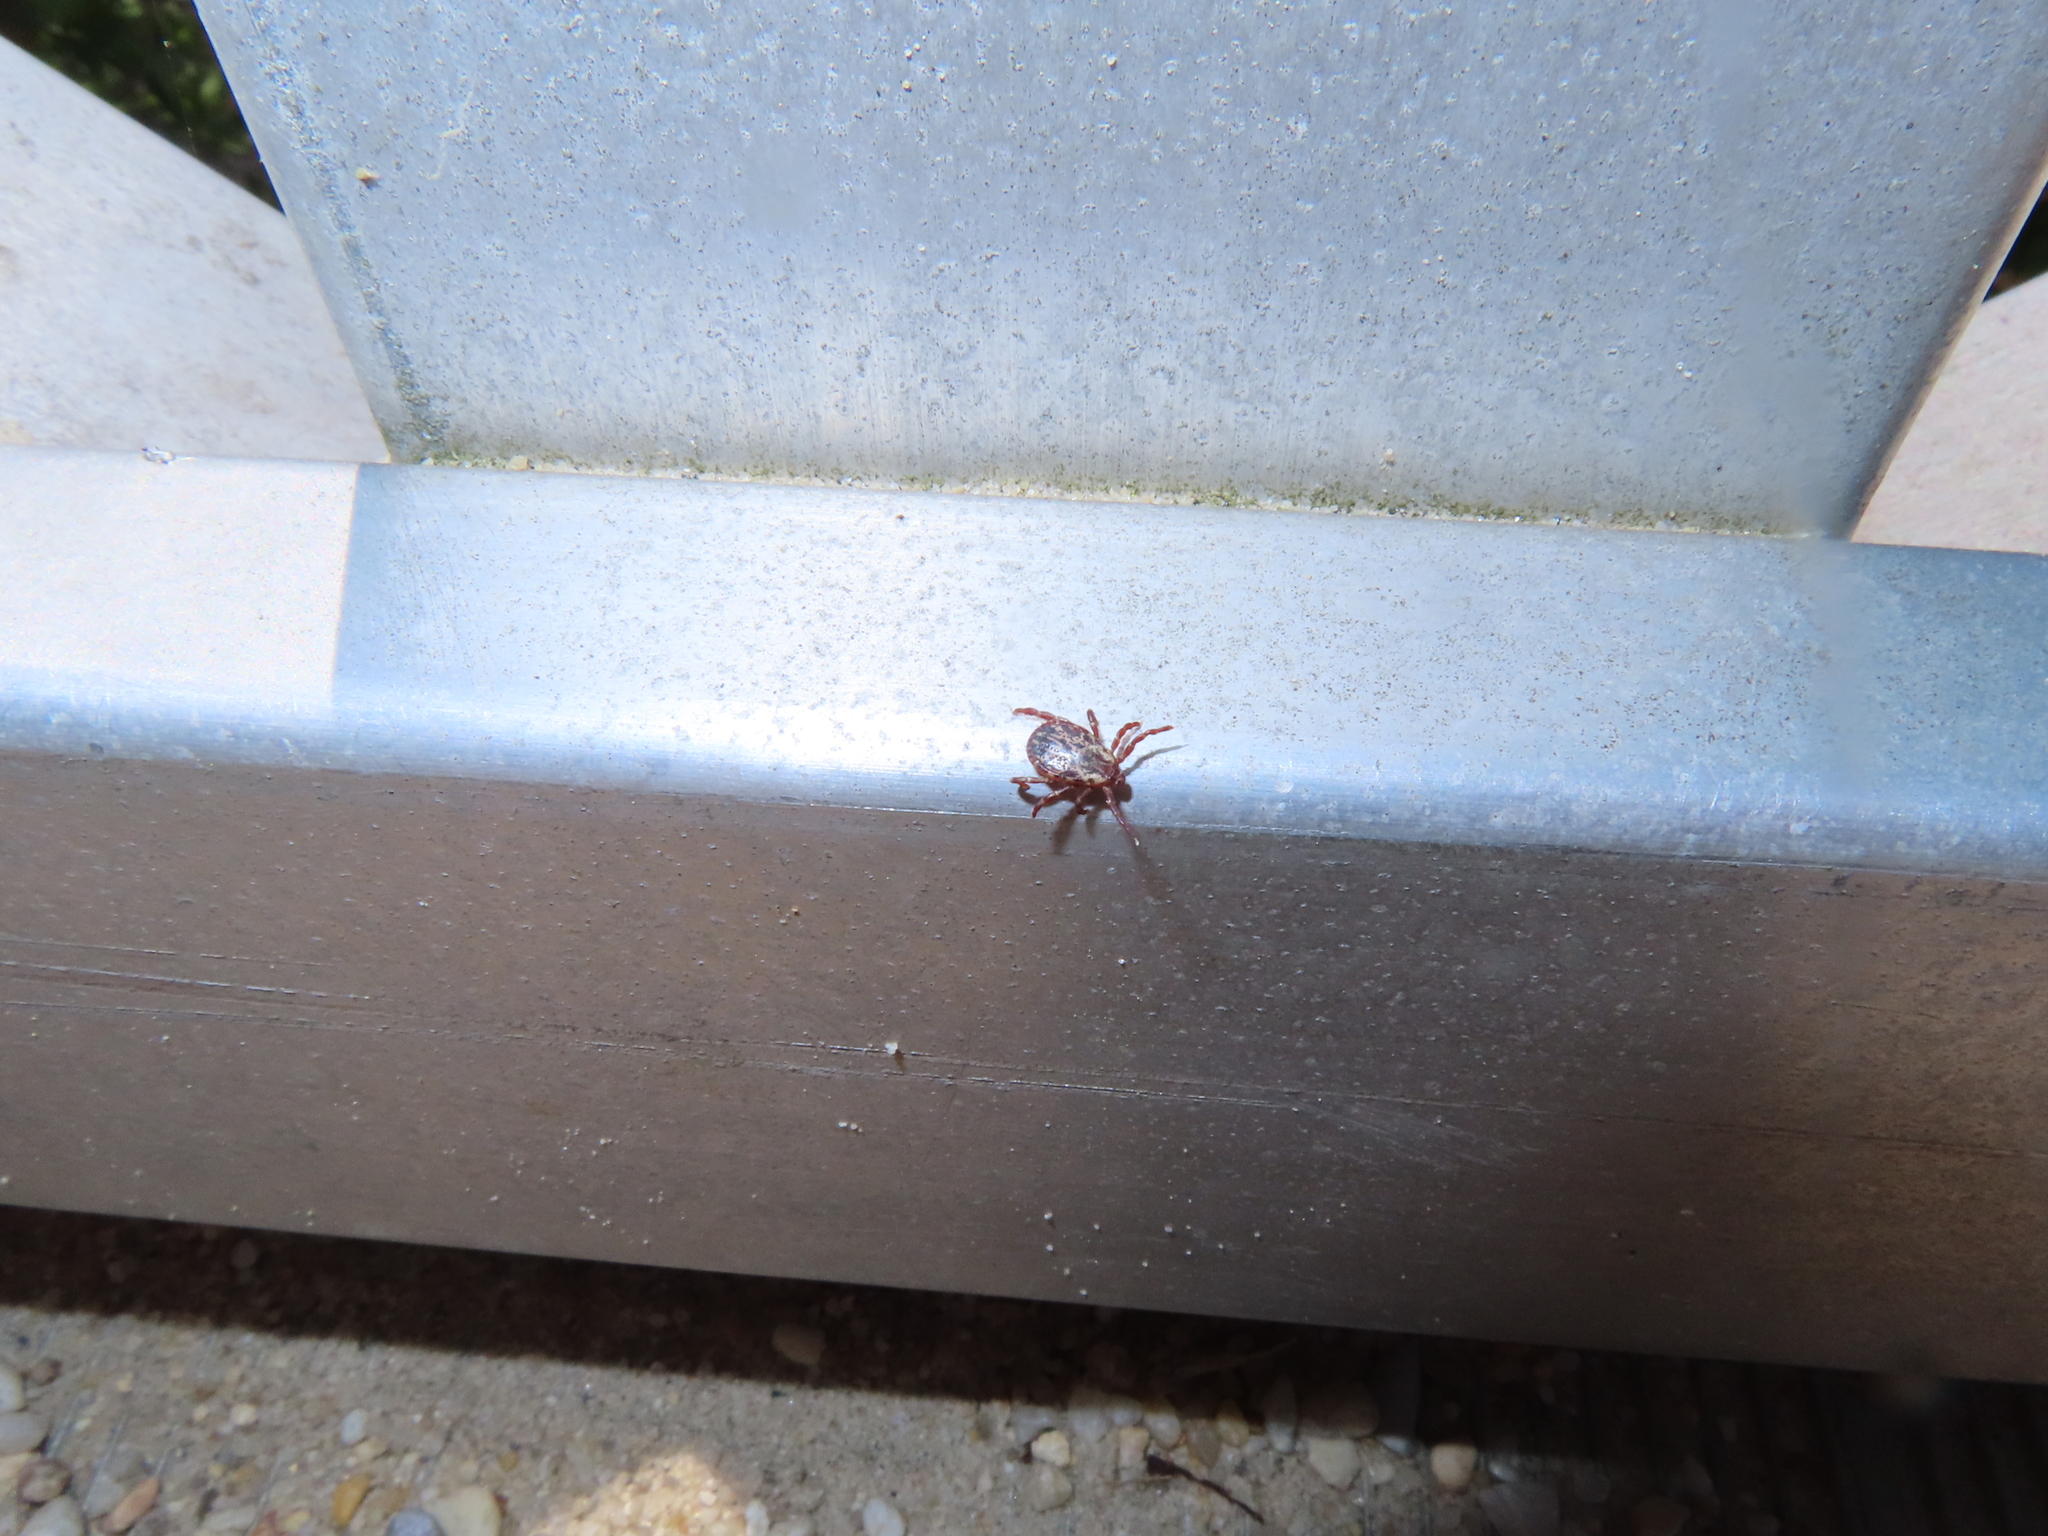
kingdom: Animalia
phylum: Arthropoda
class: Arachnida
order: Ixodida
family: Ixodidae
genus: Dermacentor
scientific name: Dermacentor variabilis
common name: American dog tick
